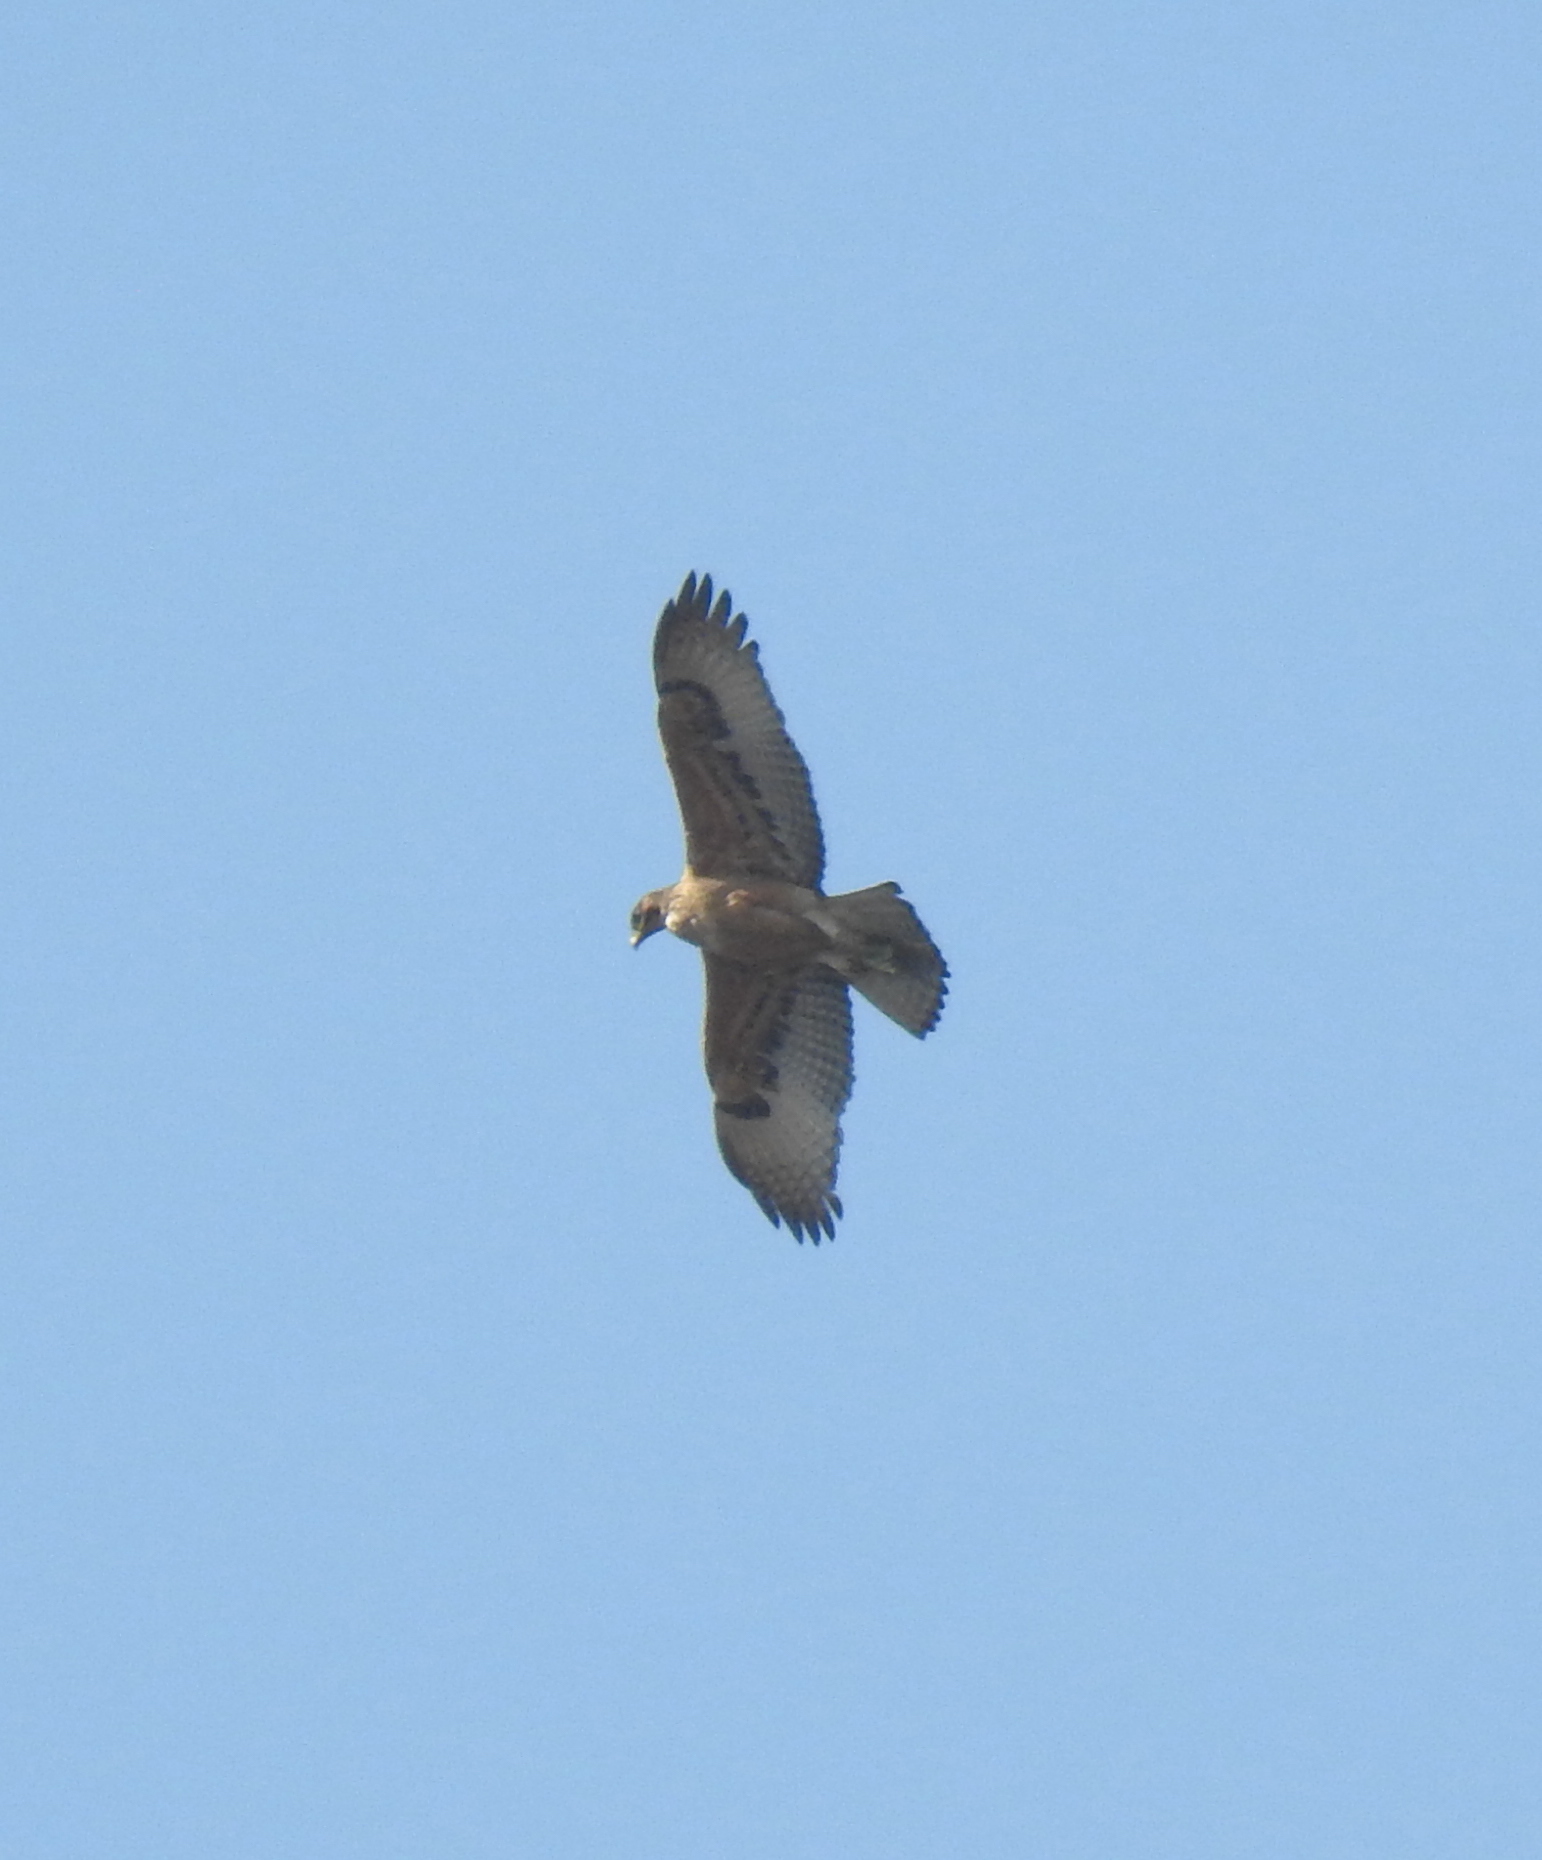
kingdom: Animalia
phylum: Chordata
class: Aves
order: Accipitriformes
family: Accipitridae
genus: Aquila
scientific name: Aquila spilogaster
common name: African hawk-eagle
